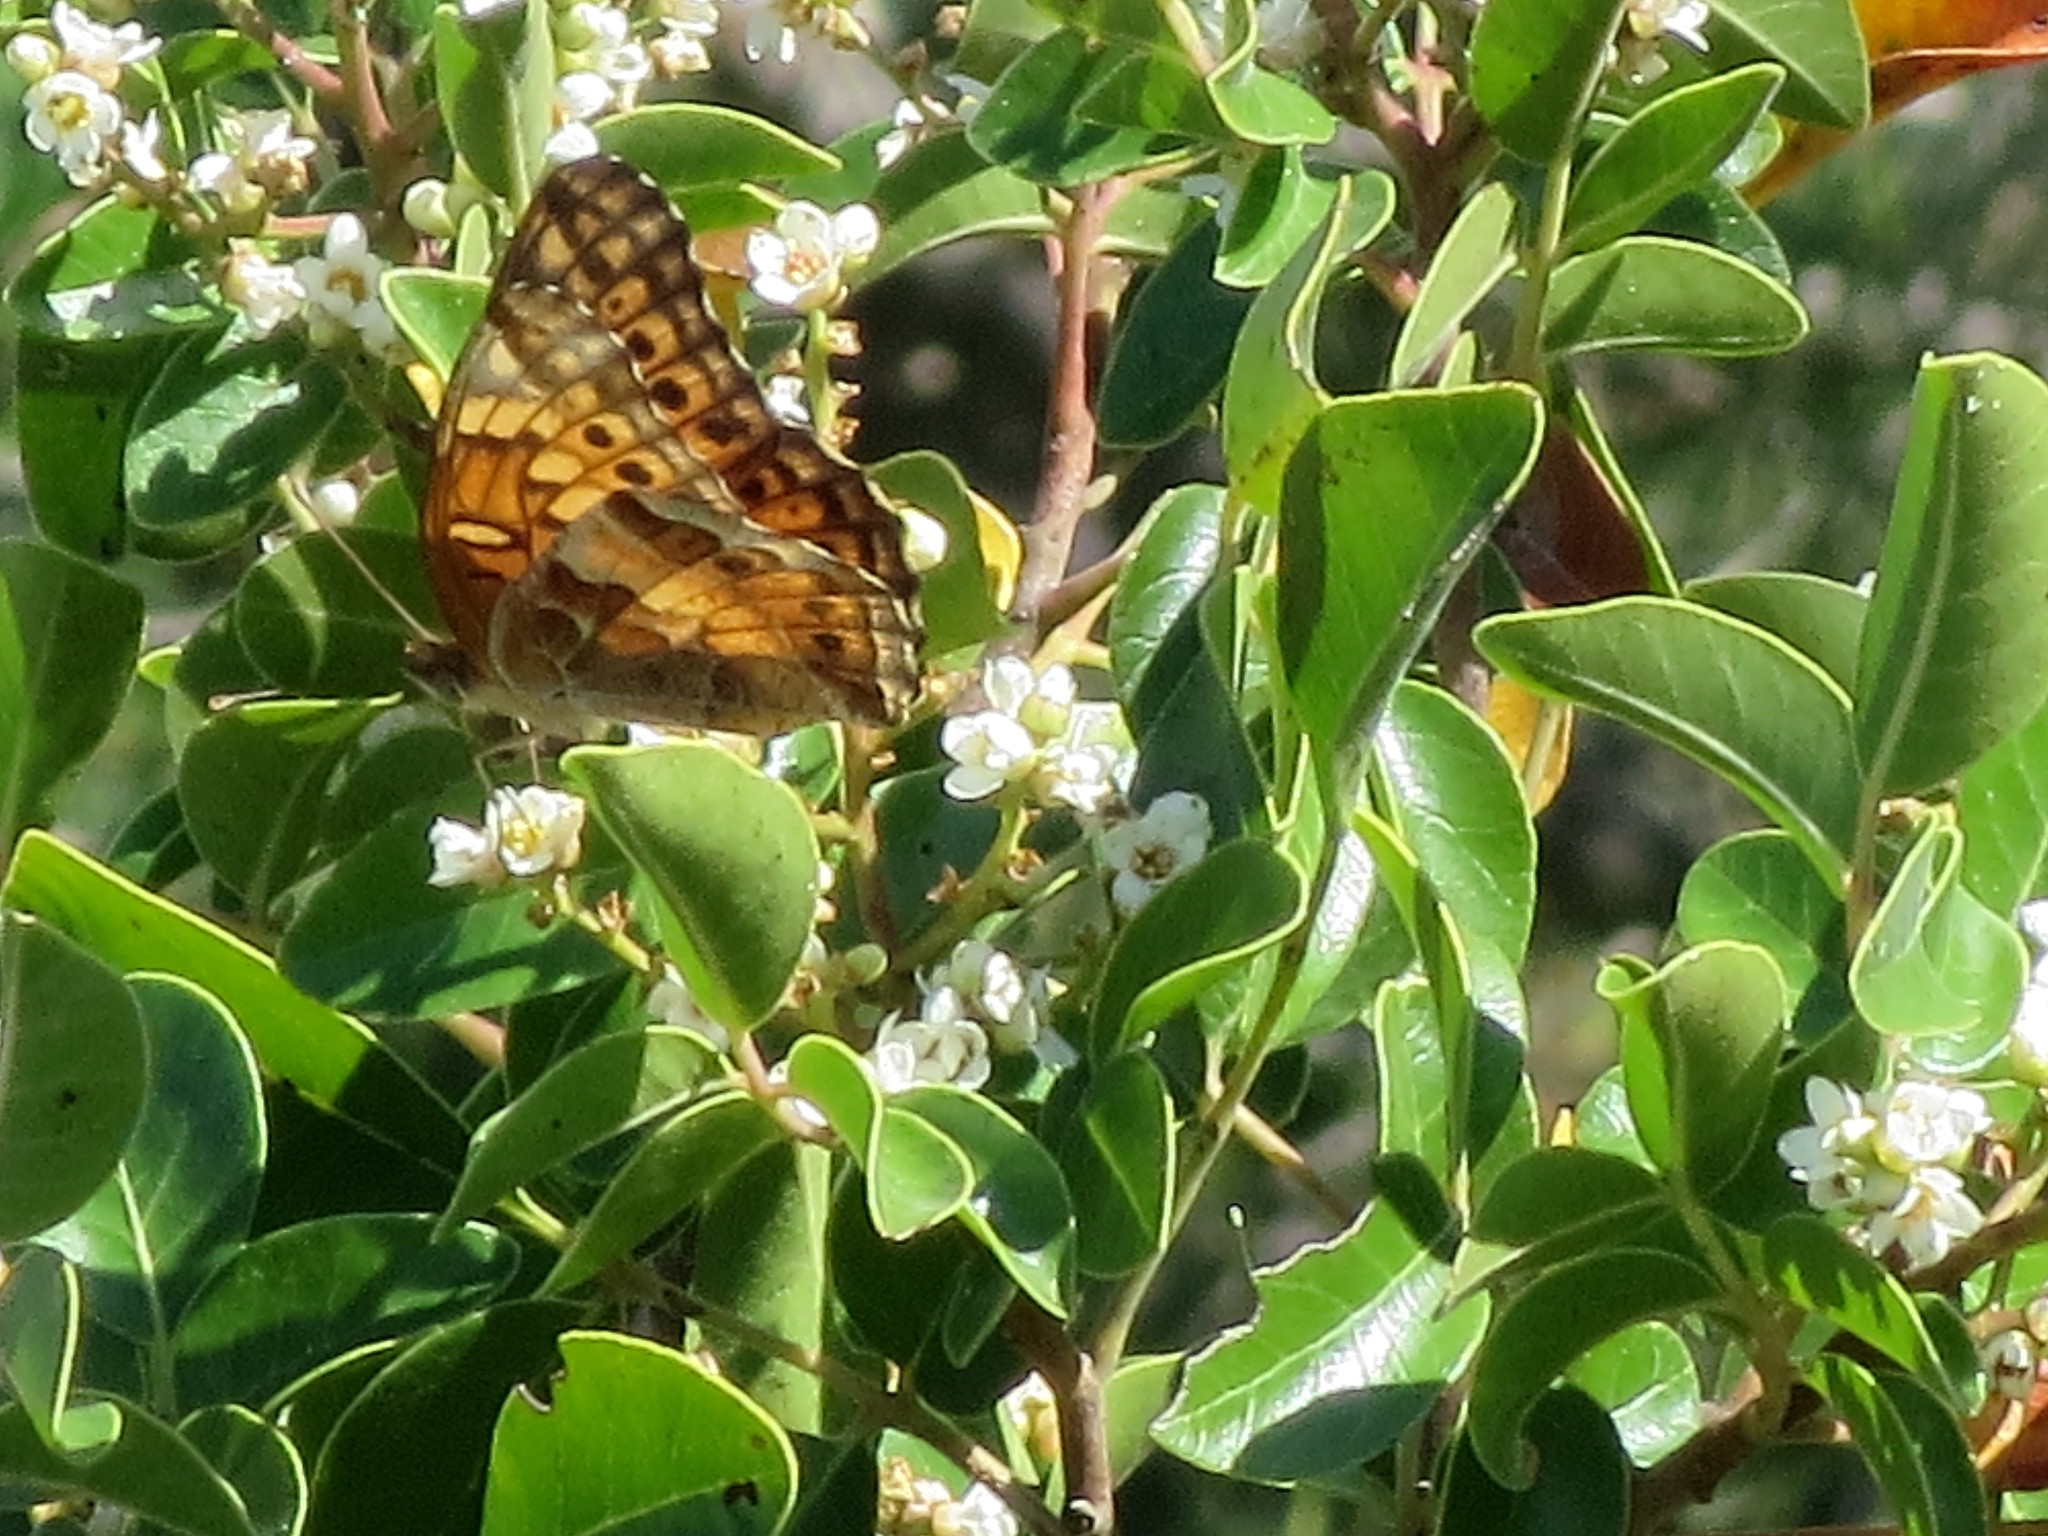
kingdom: Animalia
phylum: Arthropoda
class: Insecta
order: Lepidoptera
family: Nymphalidae
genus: Euptoieta
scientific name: Euptoieta claudia
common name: Variegated fritillary
